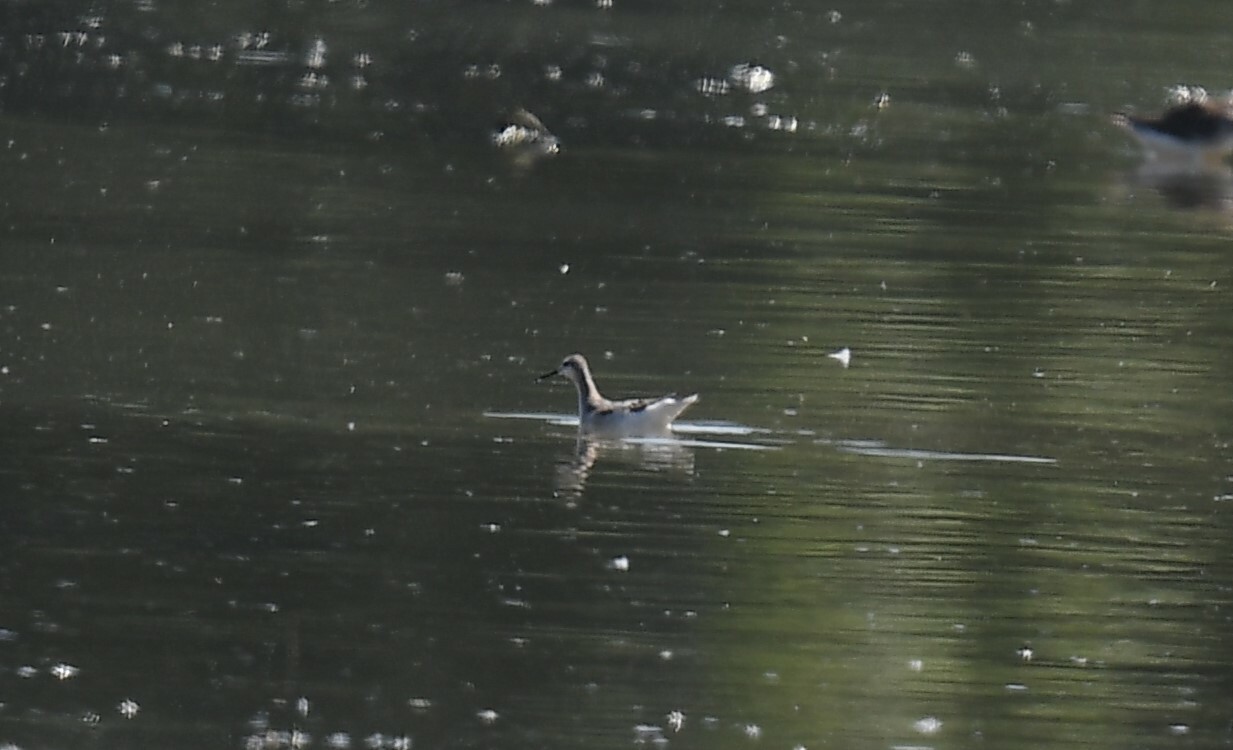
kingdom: Animalia
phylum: Chordata
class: Aves
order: Charadriiformes
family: Scolopacidae
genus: Phalaropus
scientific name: Phalaropus tricolor
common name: Wilson's phalarope
